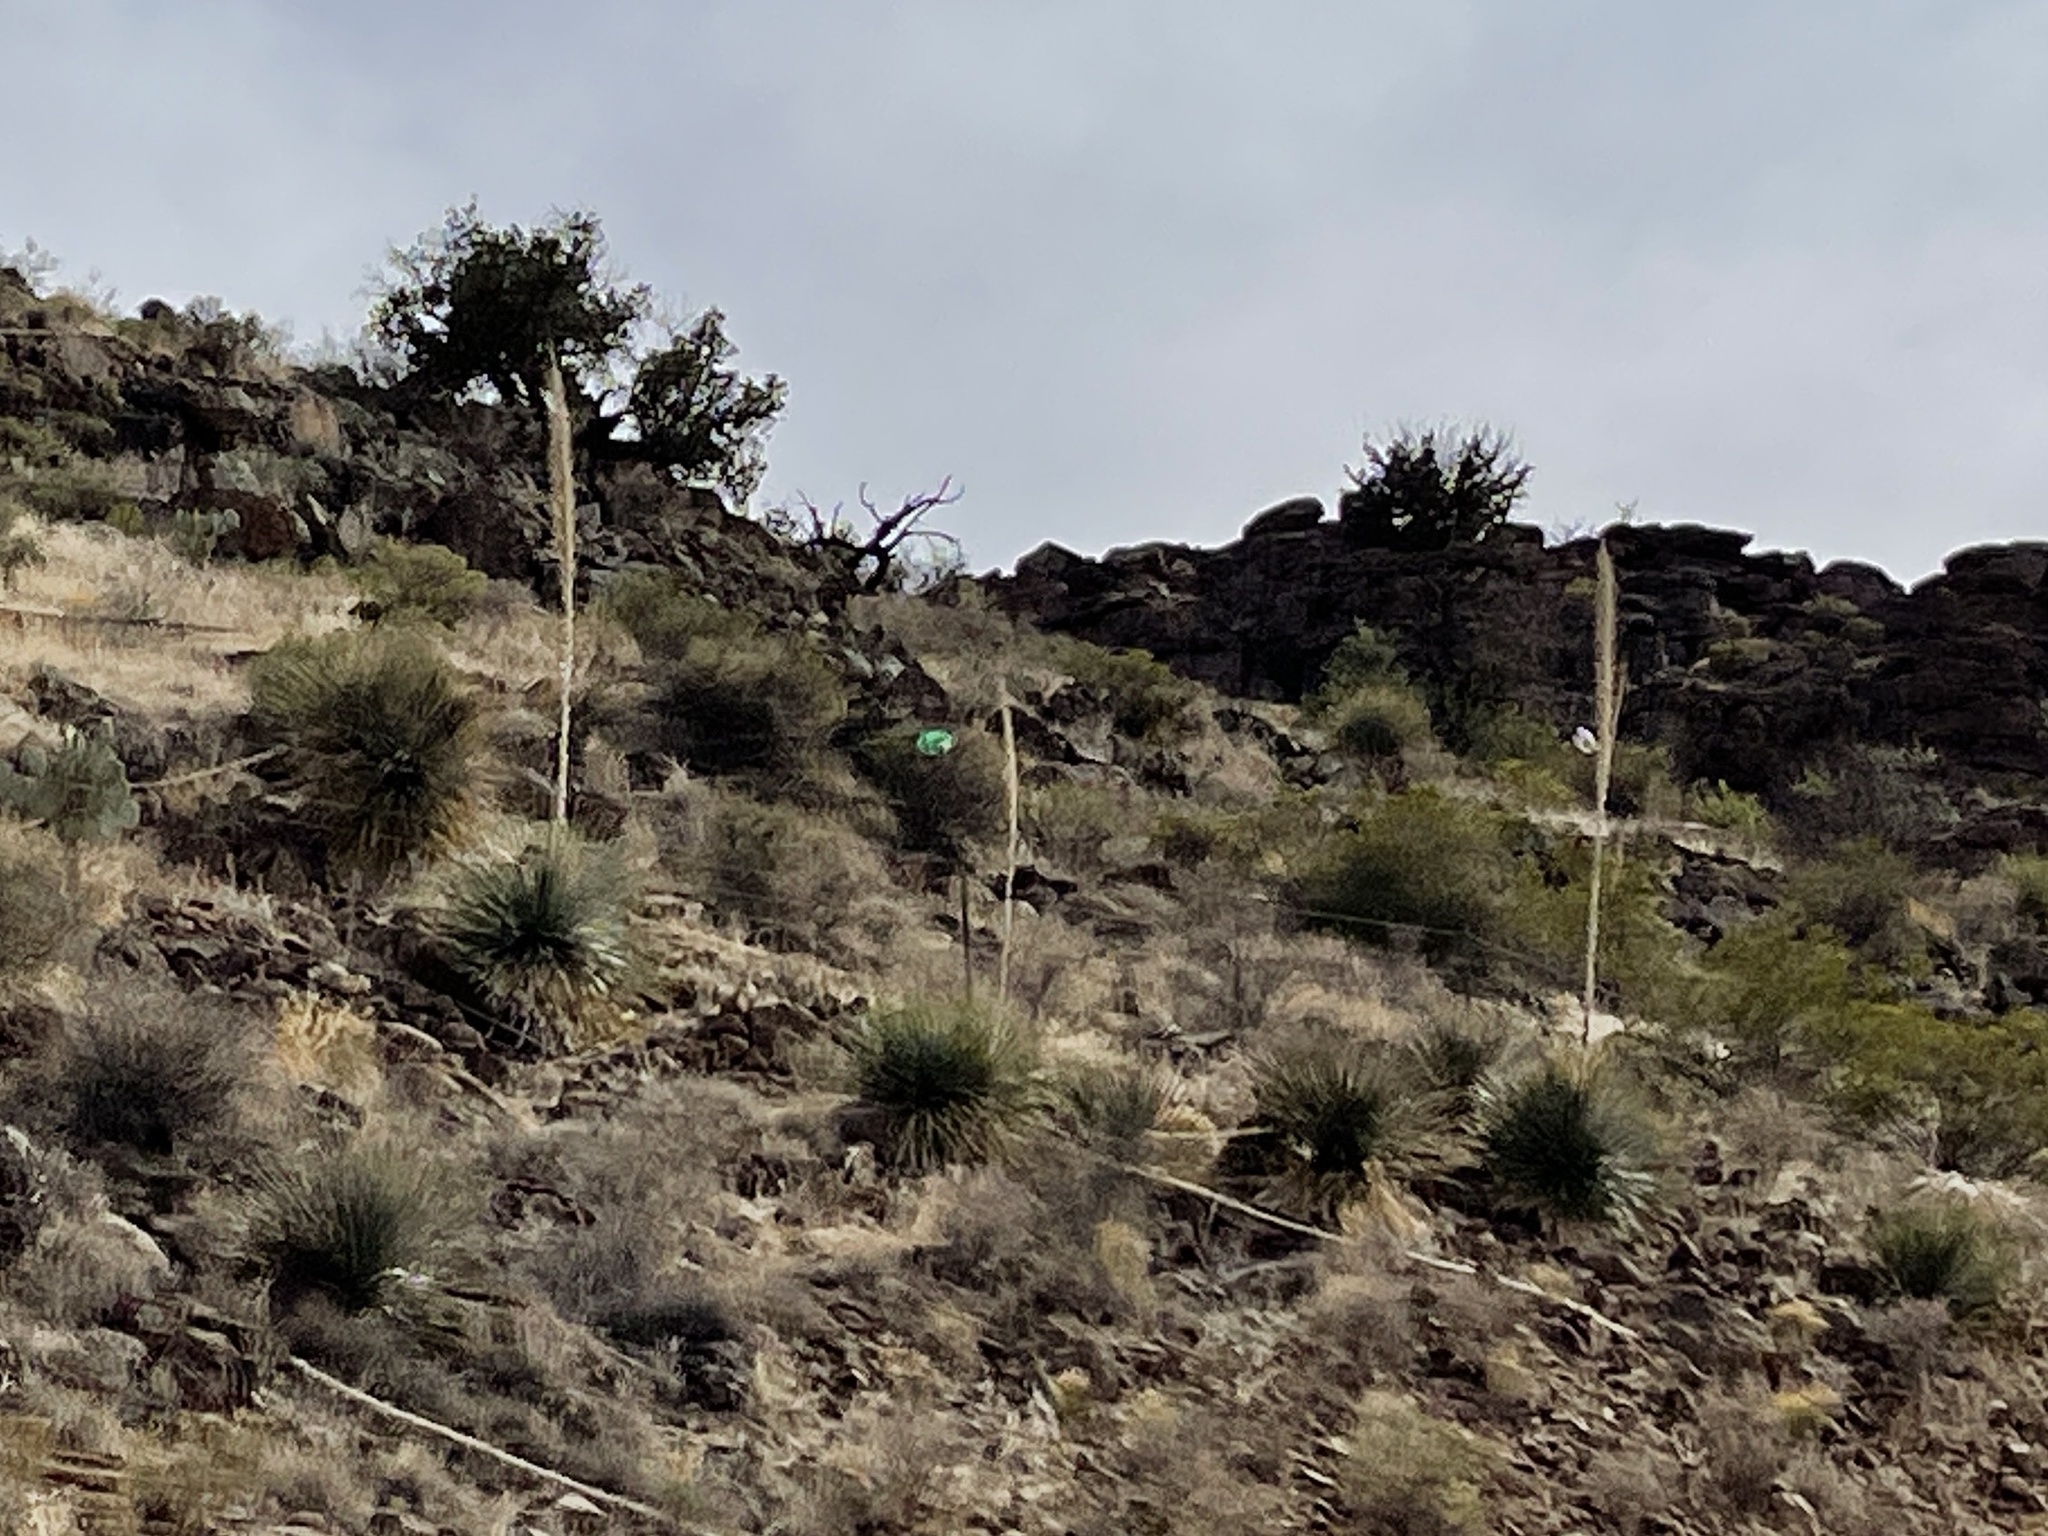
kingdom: Plantae
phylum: Tracheophyta
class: Liliopsida
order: Asparagales
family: Asparagaceae
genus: Dasylirion
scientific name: Dasylirion wheeleri
